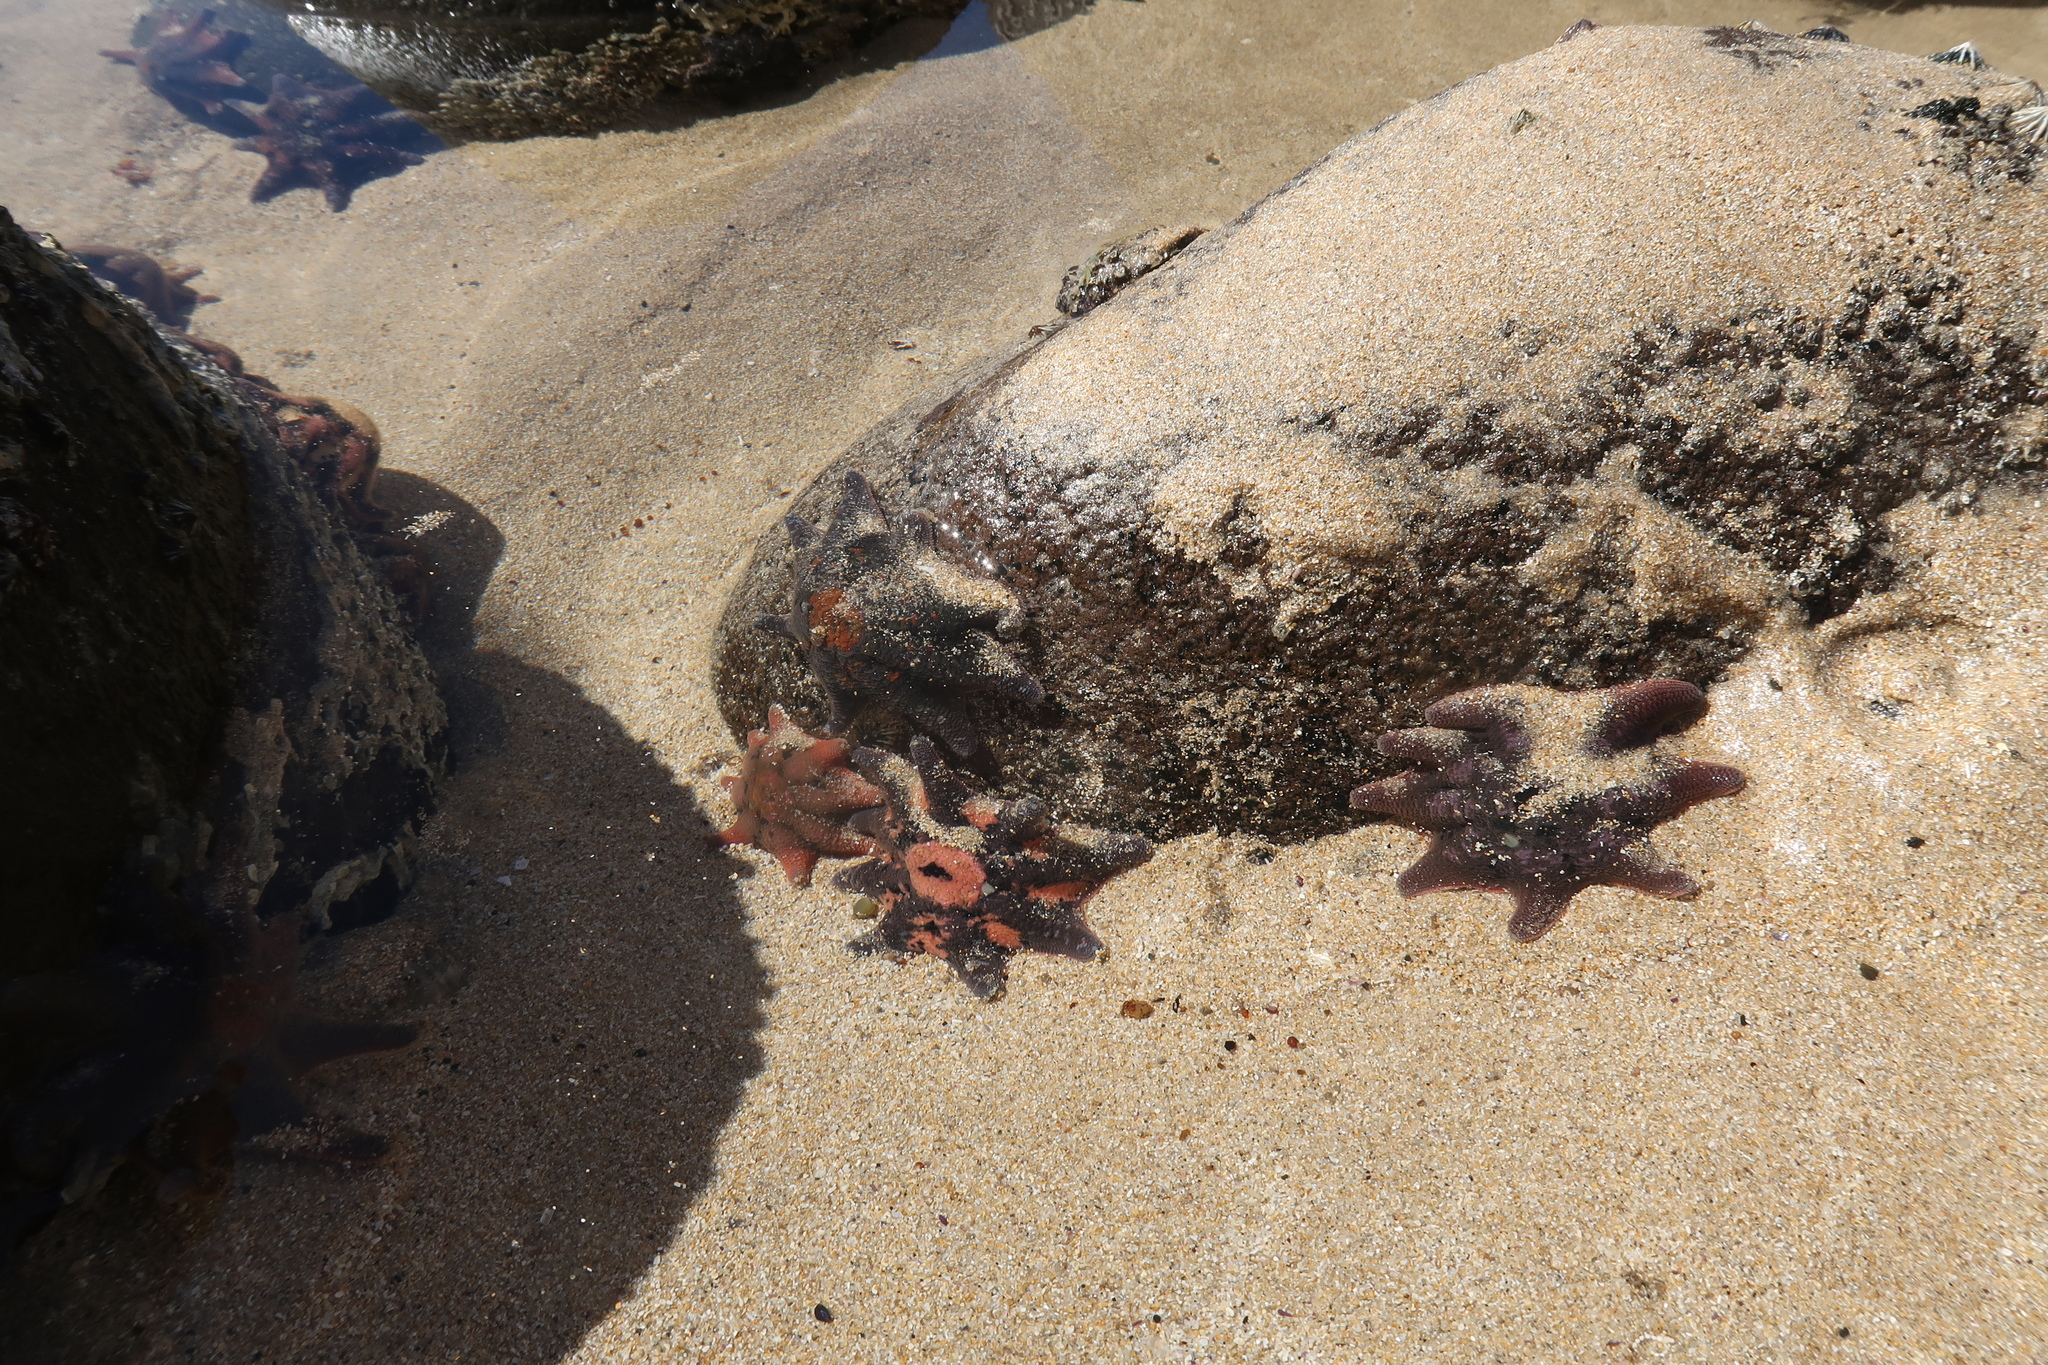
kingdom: Animalia
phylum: Echinodermata
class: Asteroidea
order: Valvatida
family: Asterinidae
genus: Meridiastra
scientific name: Meridiastra calcar
